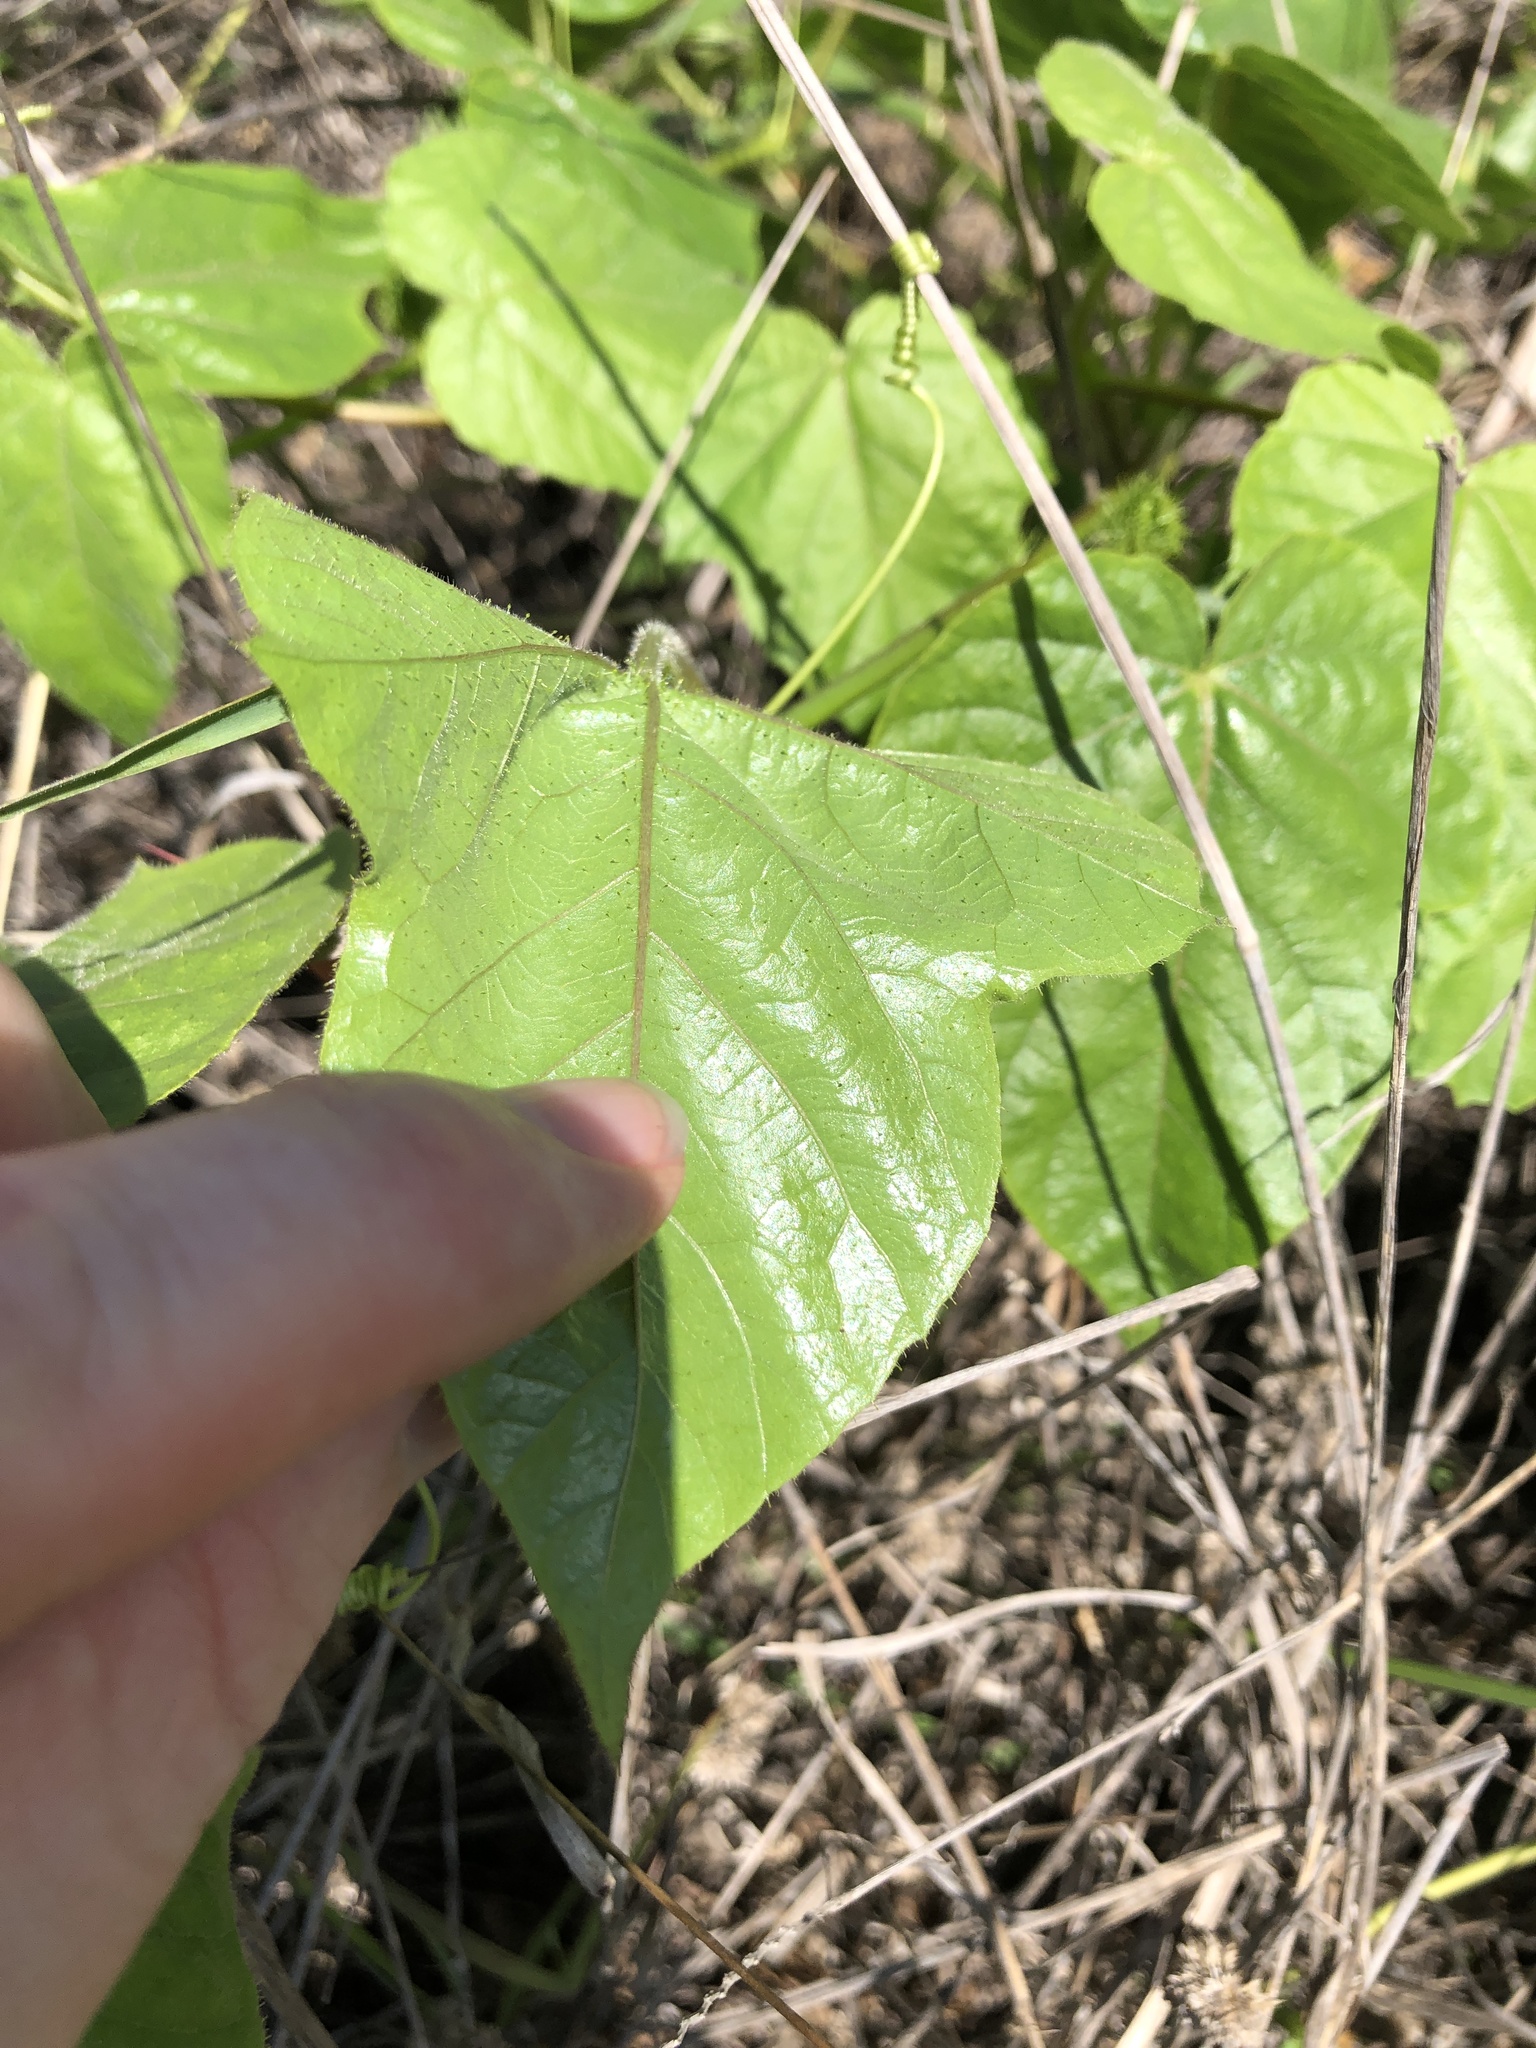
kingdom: Plantae
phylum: Tracheophyta
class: Magnoliopsida
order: Malpighiales
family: Passifloraceae
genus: Passiflora
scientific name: Passiflora foetida
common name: Fetid passionflower
